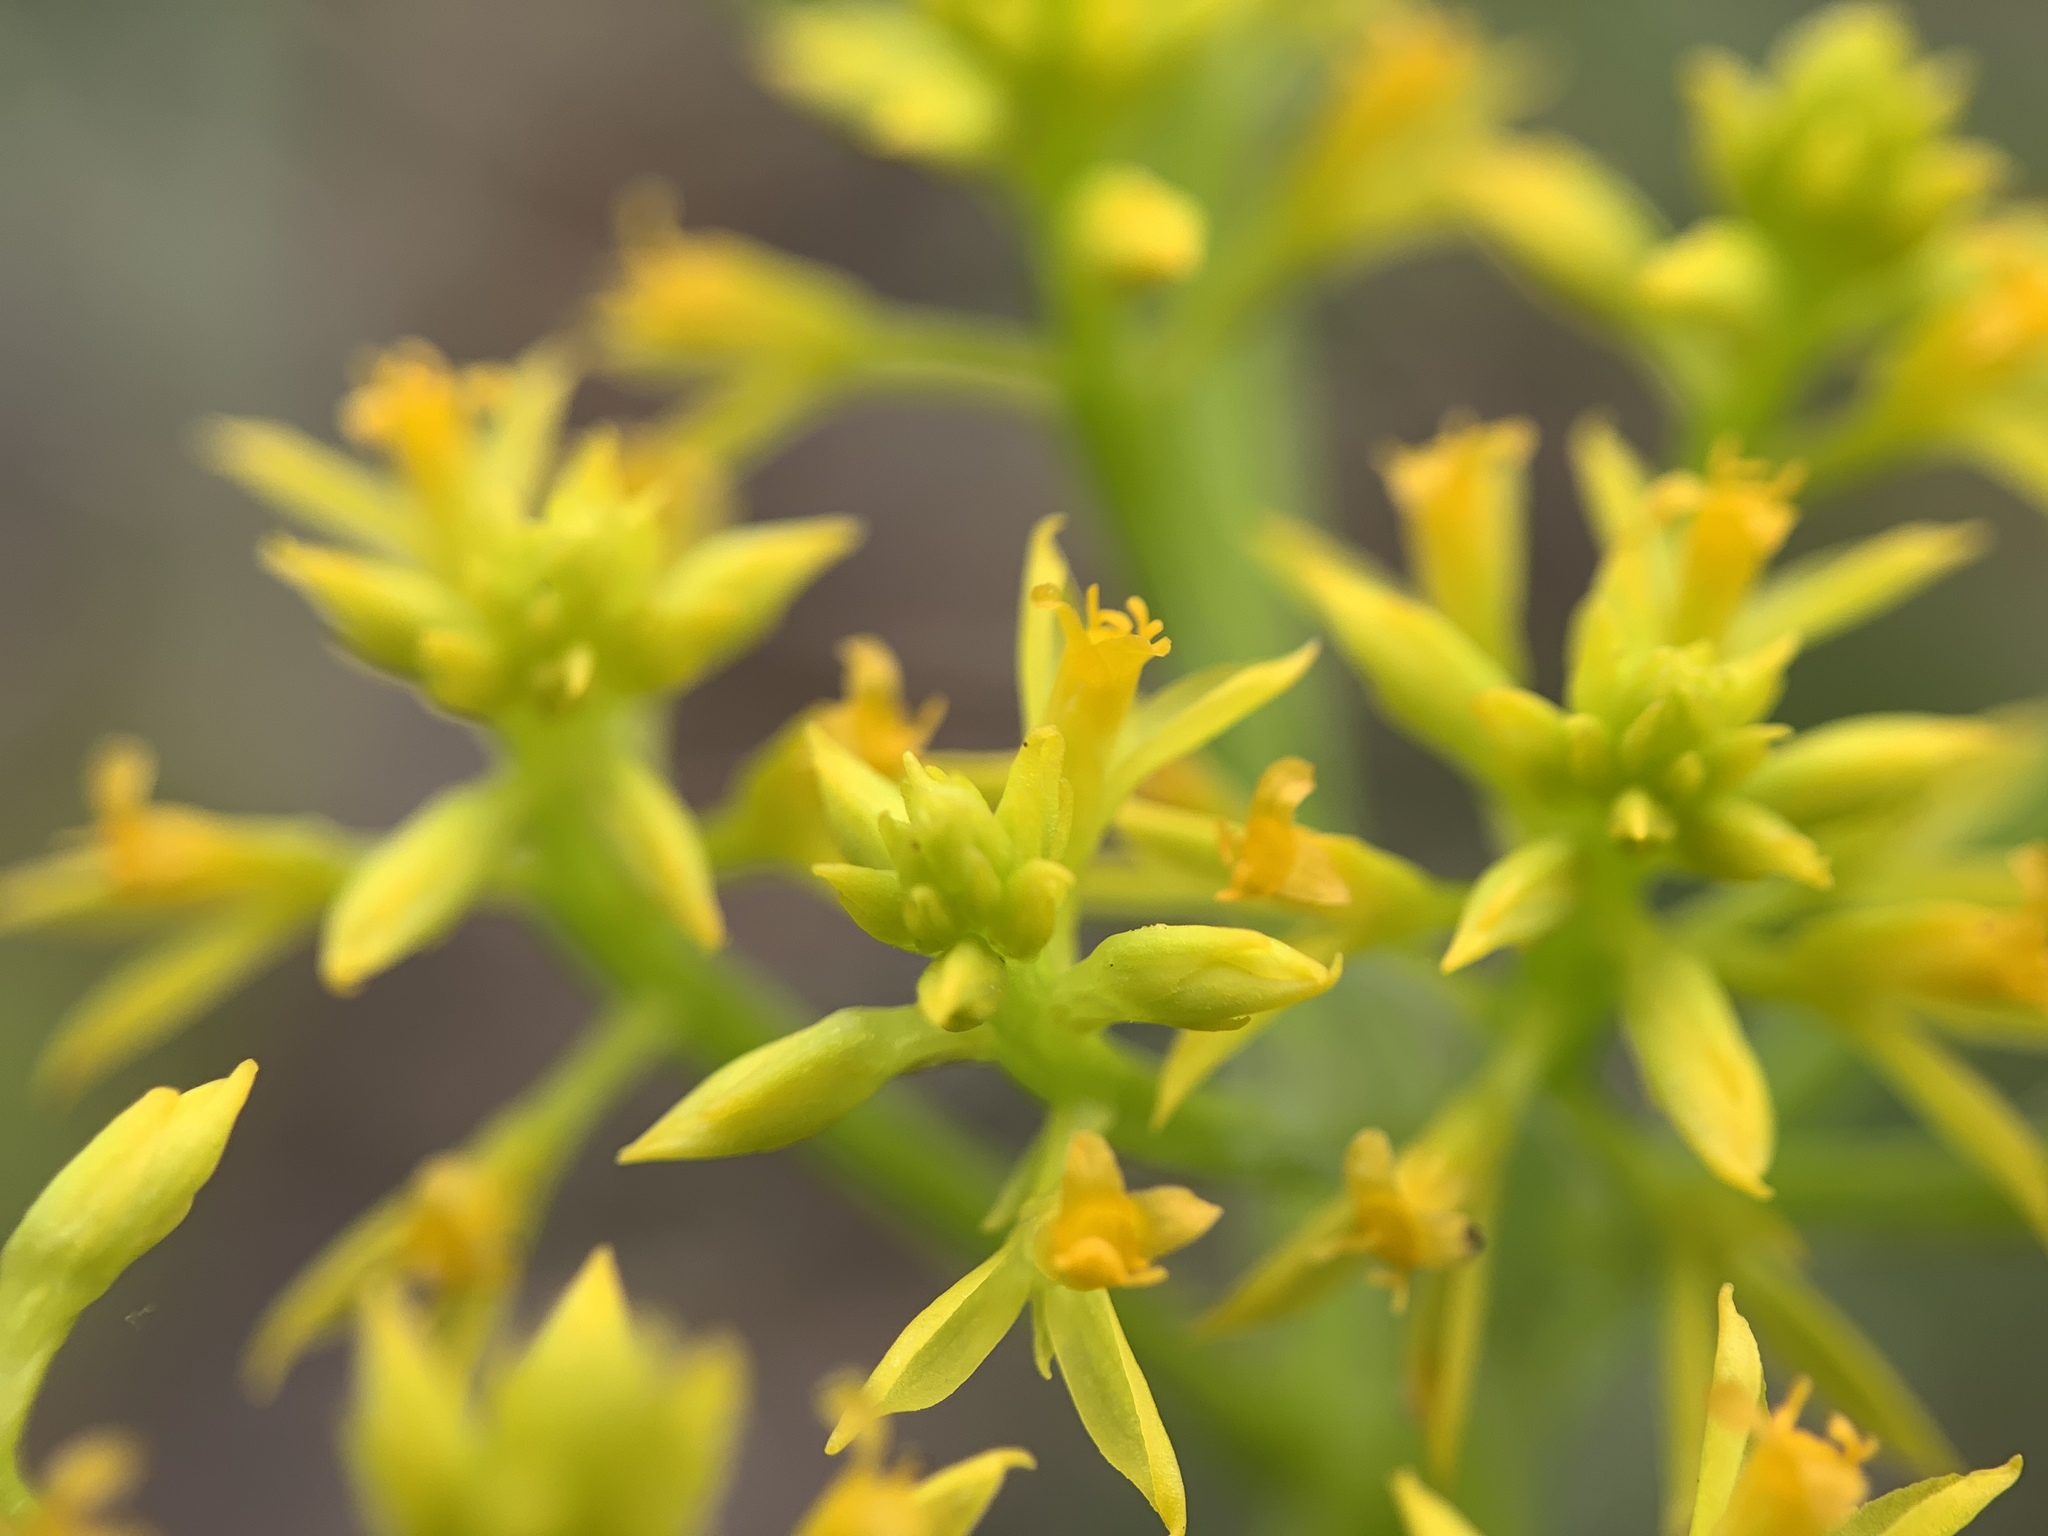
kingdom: Plantae
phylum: Tracheophyta
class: Magnoliopsida
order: Fabales
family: Polygalaceae
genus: Polygala
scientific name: Polygala ramosa
